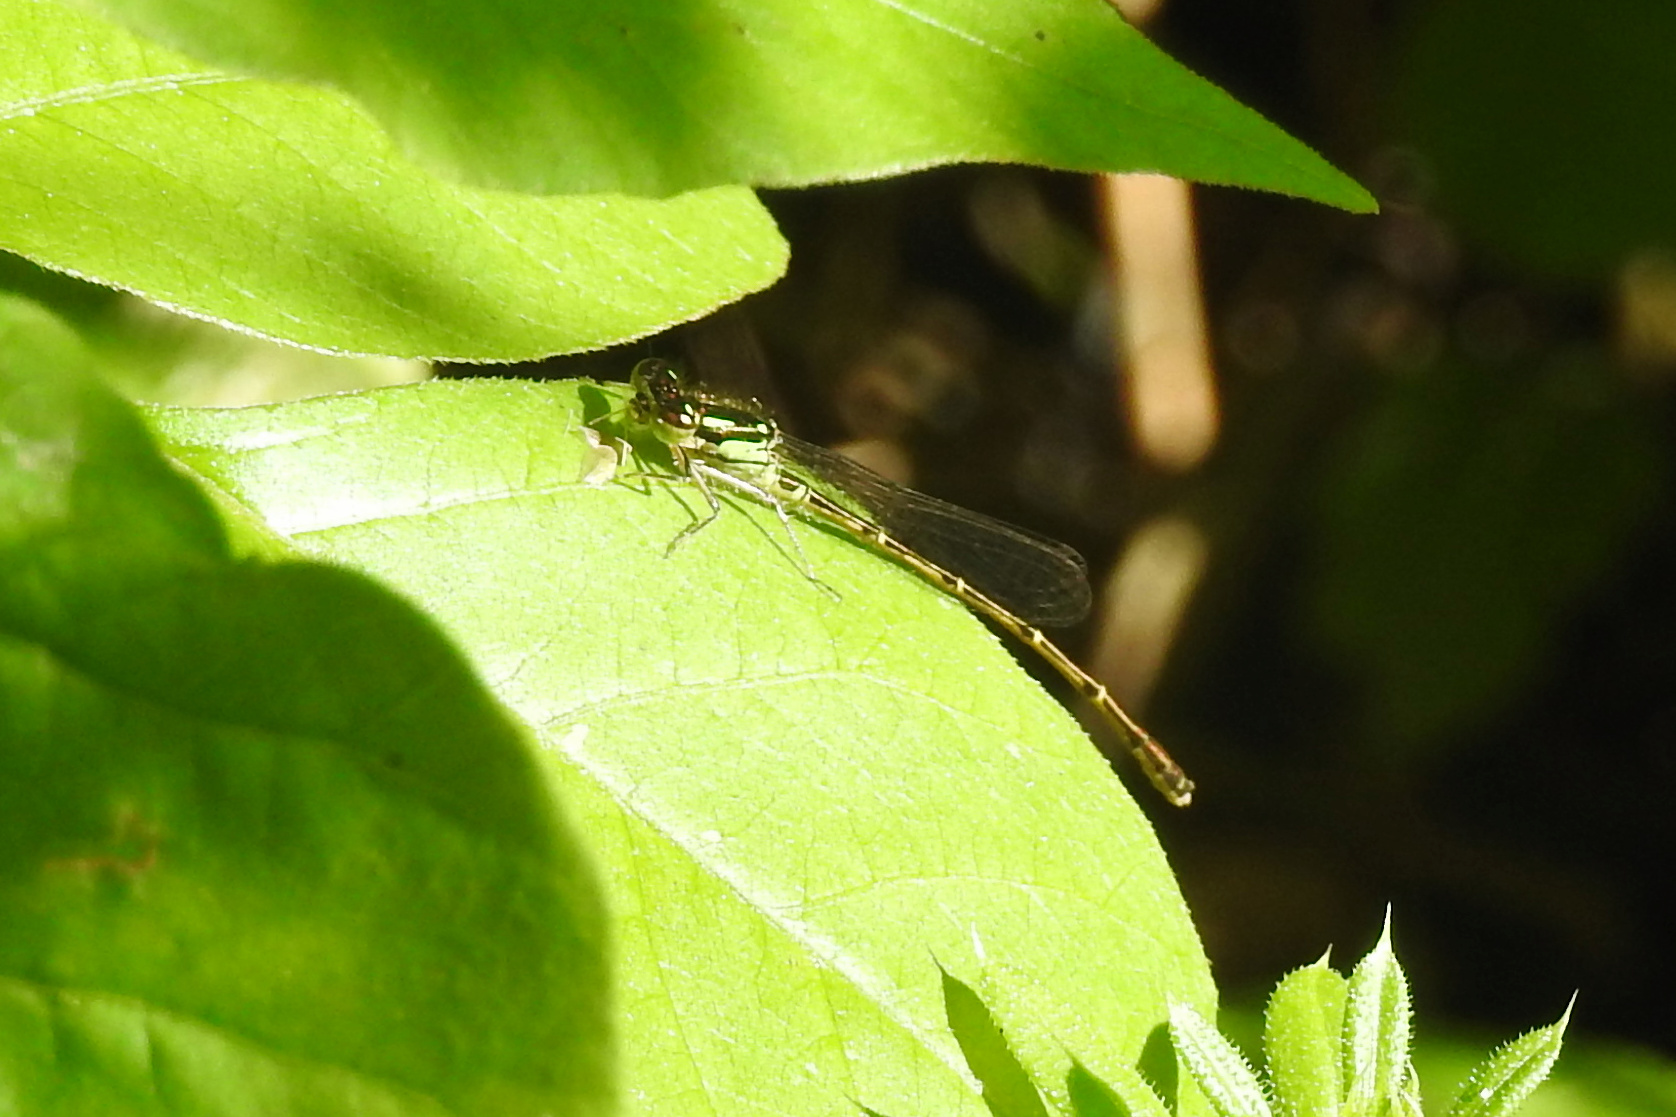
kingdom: Animalia
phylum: Arthropoda
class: Insecta
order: Odonata
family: Coenagrionidae
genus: Ischnura
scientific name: Ischnura posita
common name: Fragile forktail
